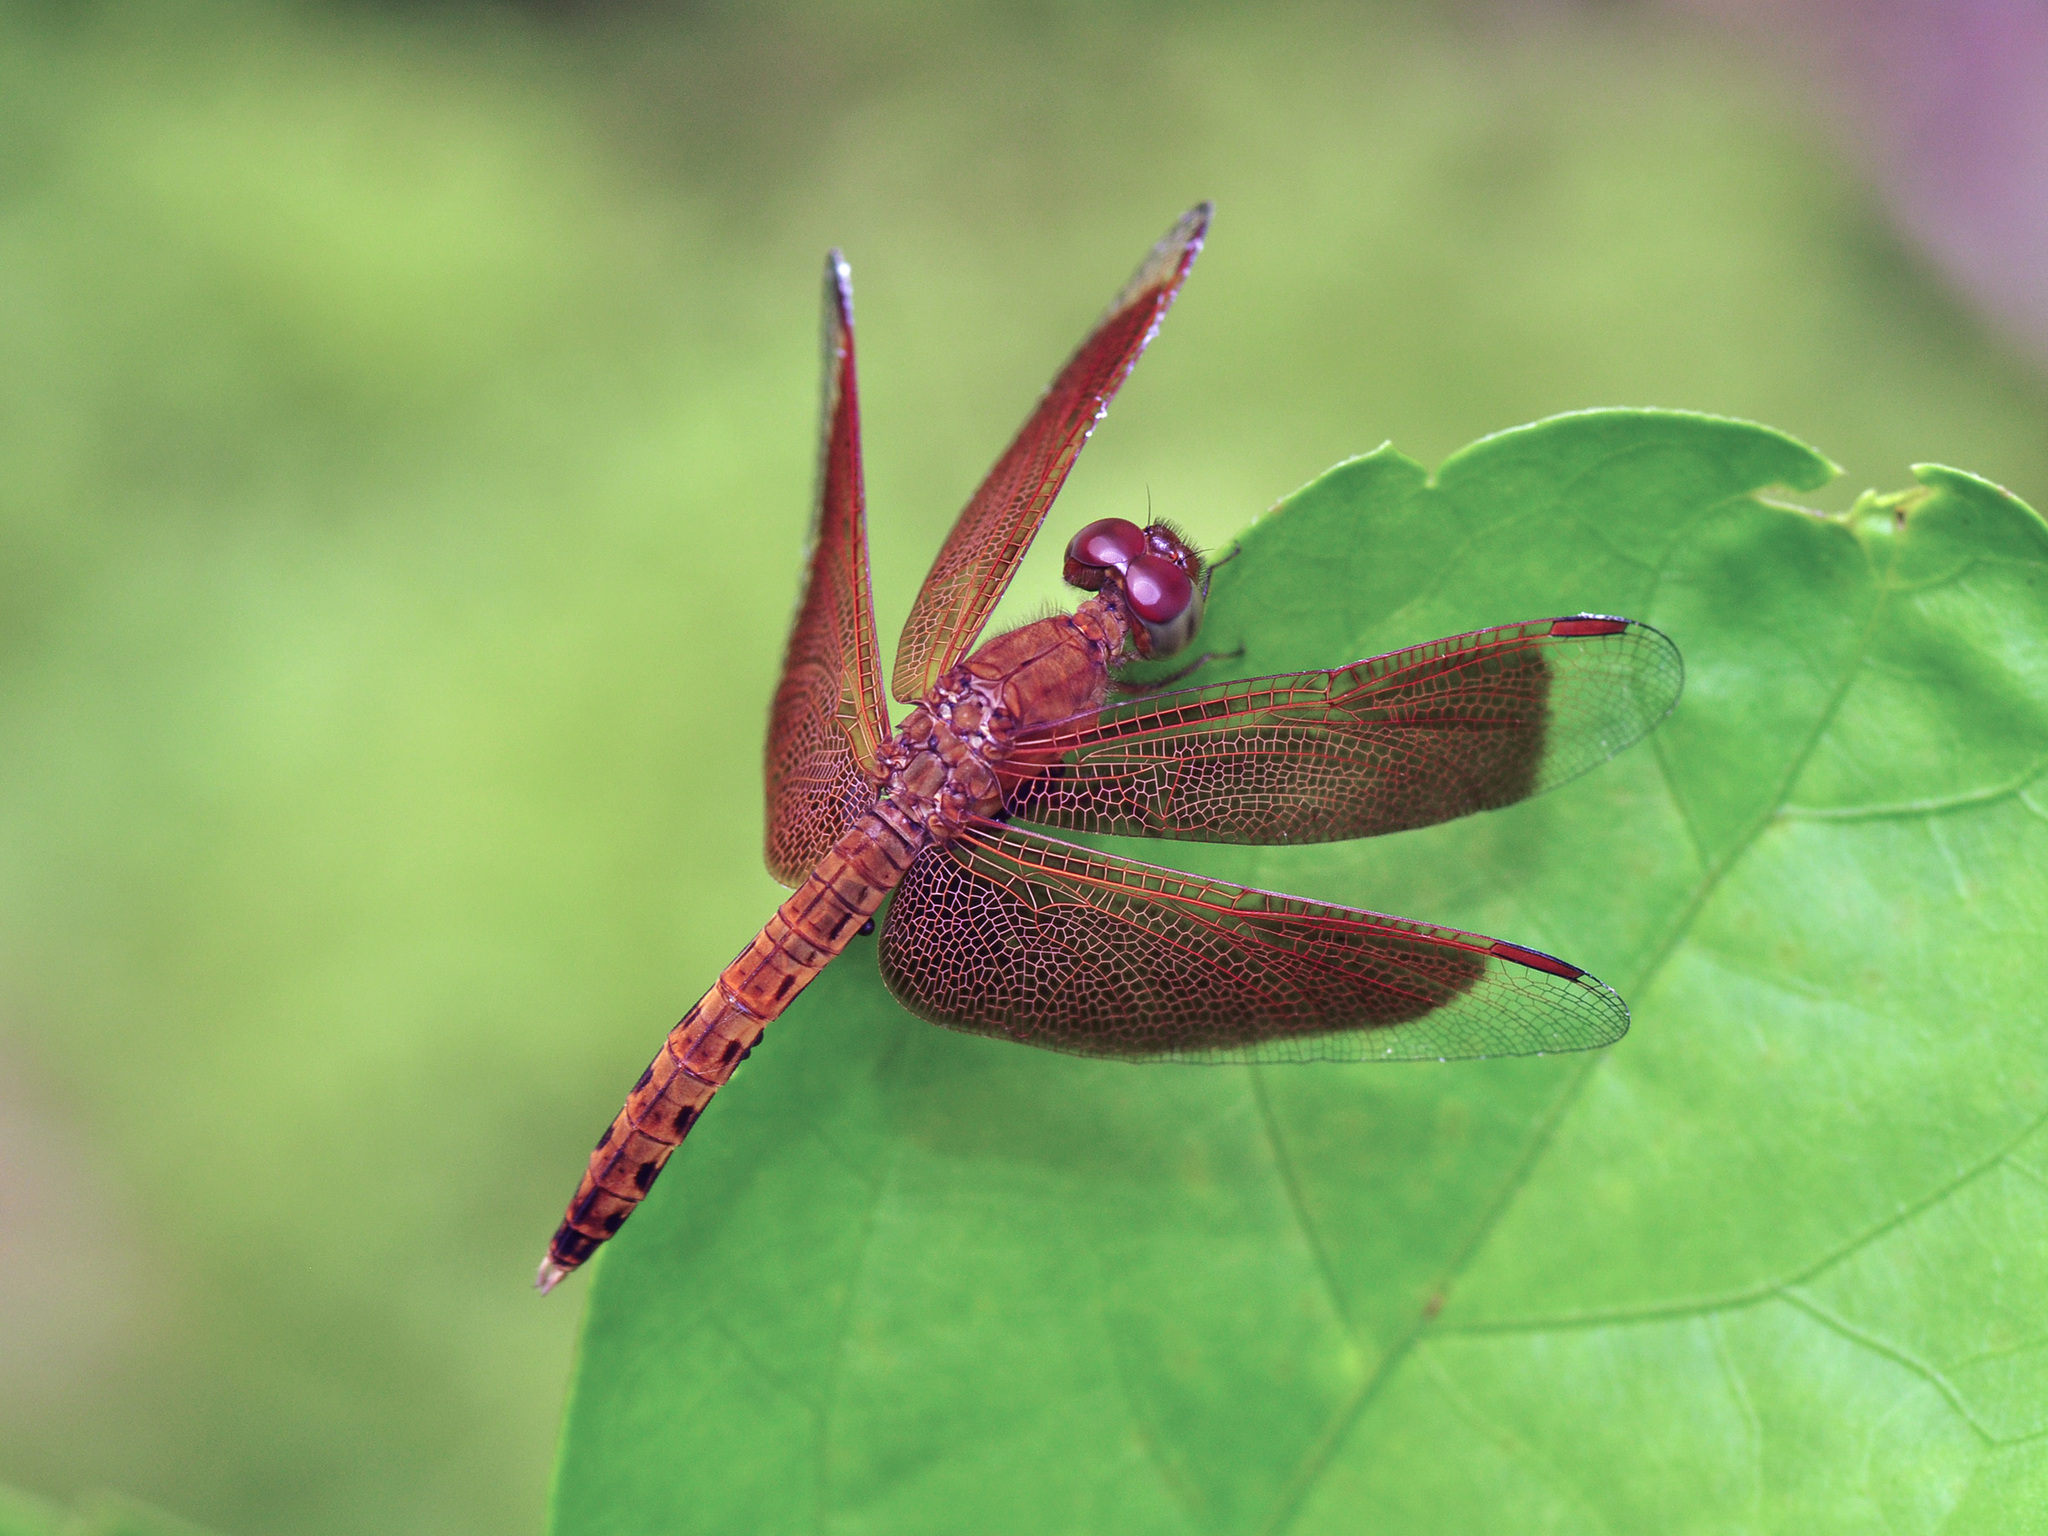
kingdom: Animalia
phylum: Arthropoda
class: Insecta
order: Odonata
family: Libellulidae
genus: Neurothemis
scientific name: Neurothemis fluctuans
